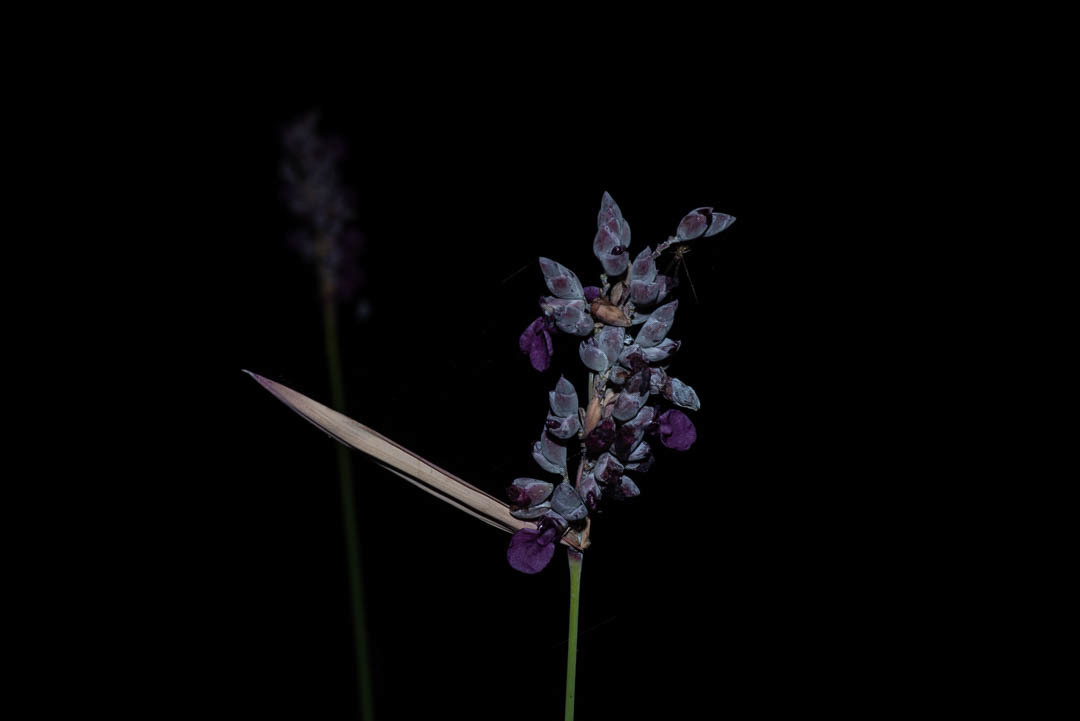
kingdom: Plantae
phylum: Tracheophyta
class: Liliopsida
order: Zingiberales
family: Marantaceae
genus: Thalia
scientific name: Thalia dealbata
